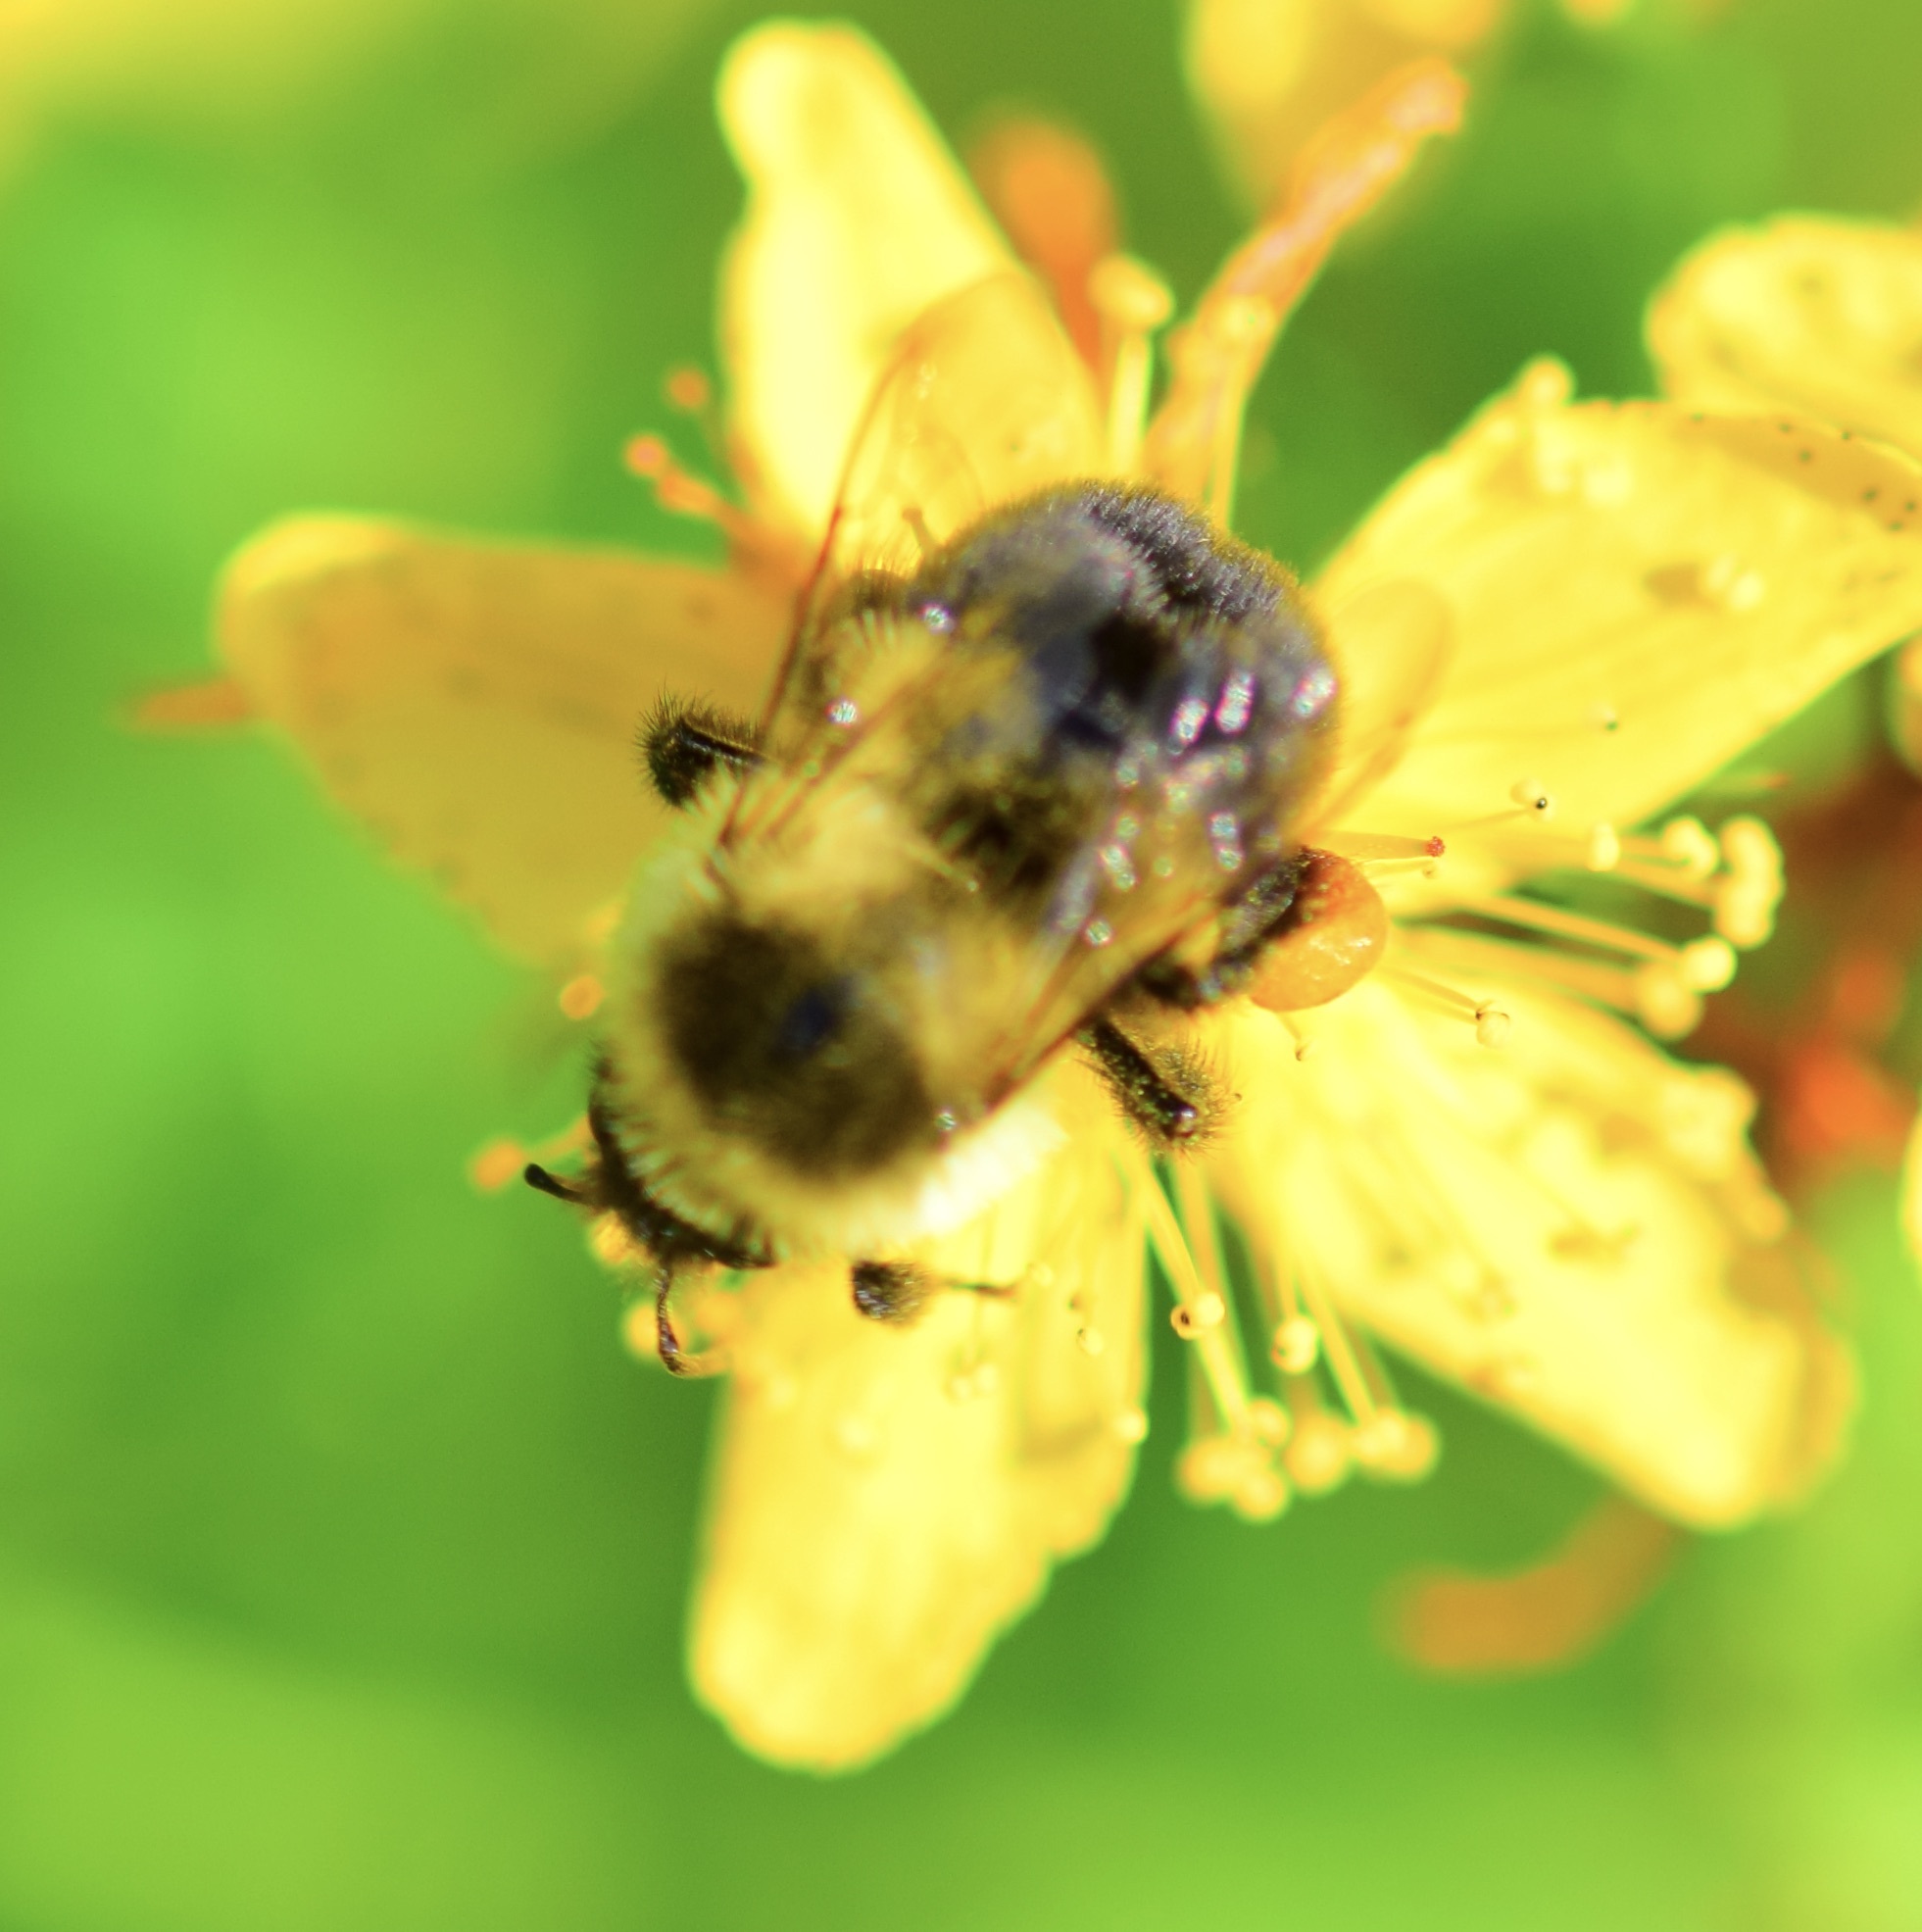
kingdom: Animalia
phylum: Arthropoda
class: Insecta
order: Hymenoptera
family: Apidae
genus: Bombus
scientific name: Bombus impatiens
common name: Common eastern bumble bee
